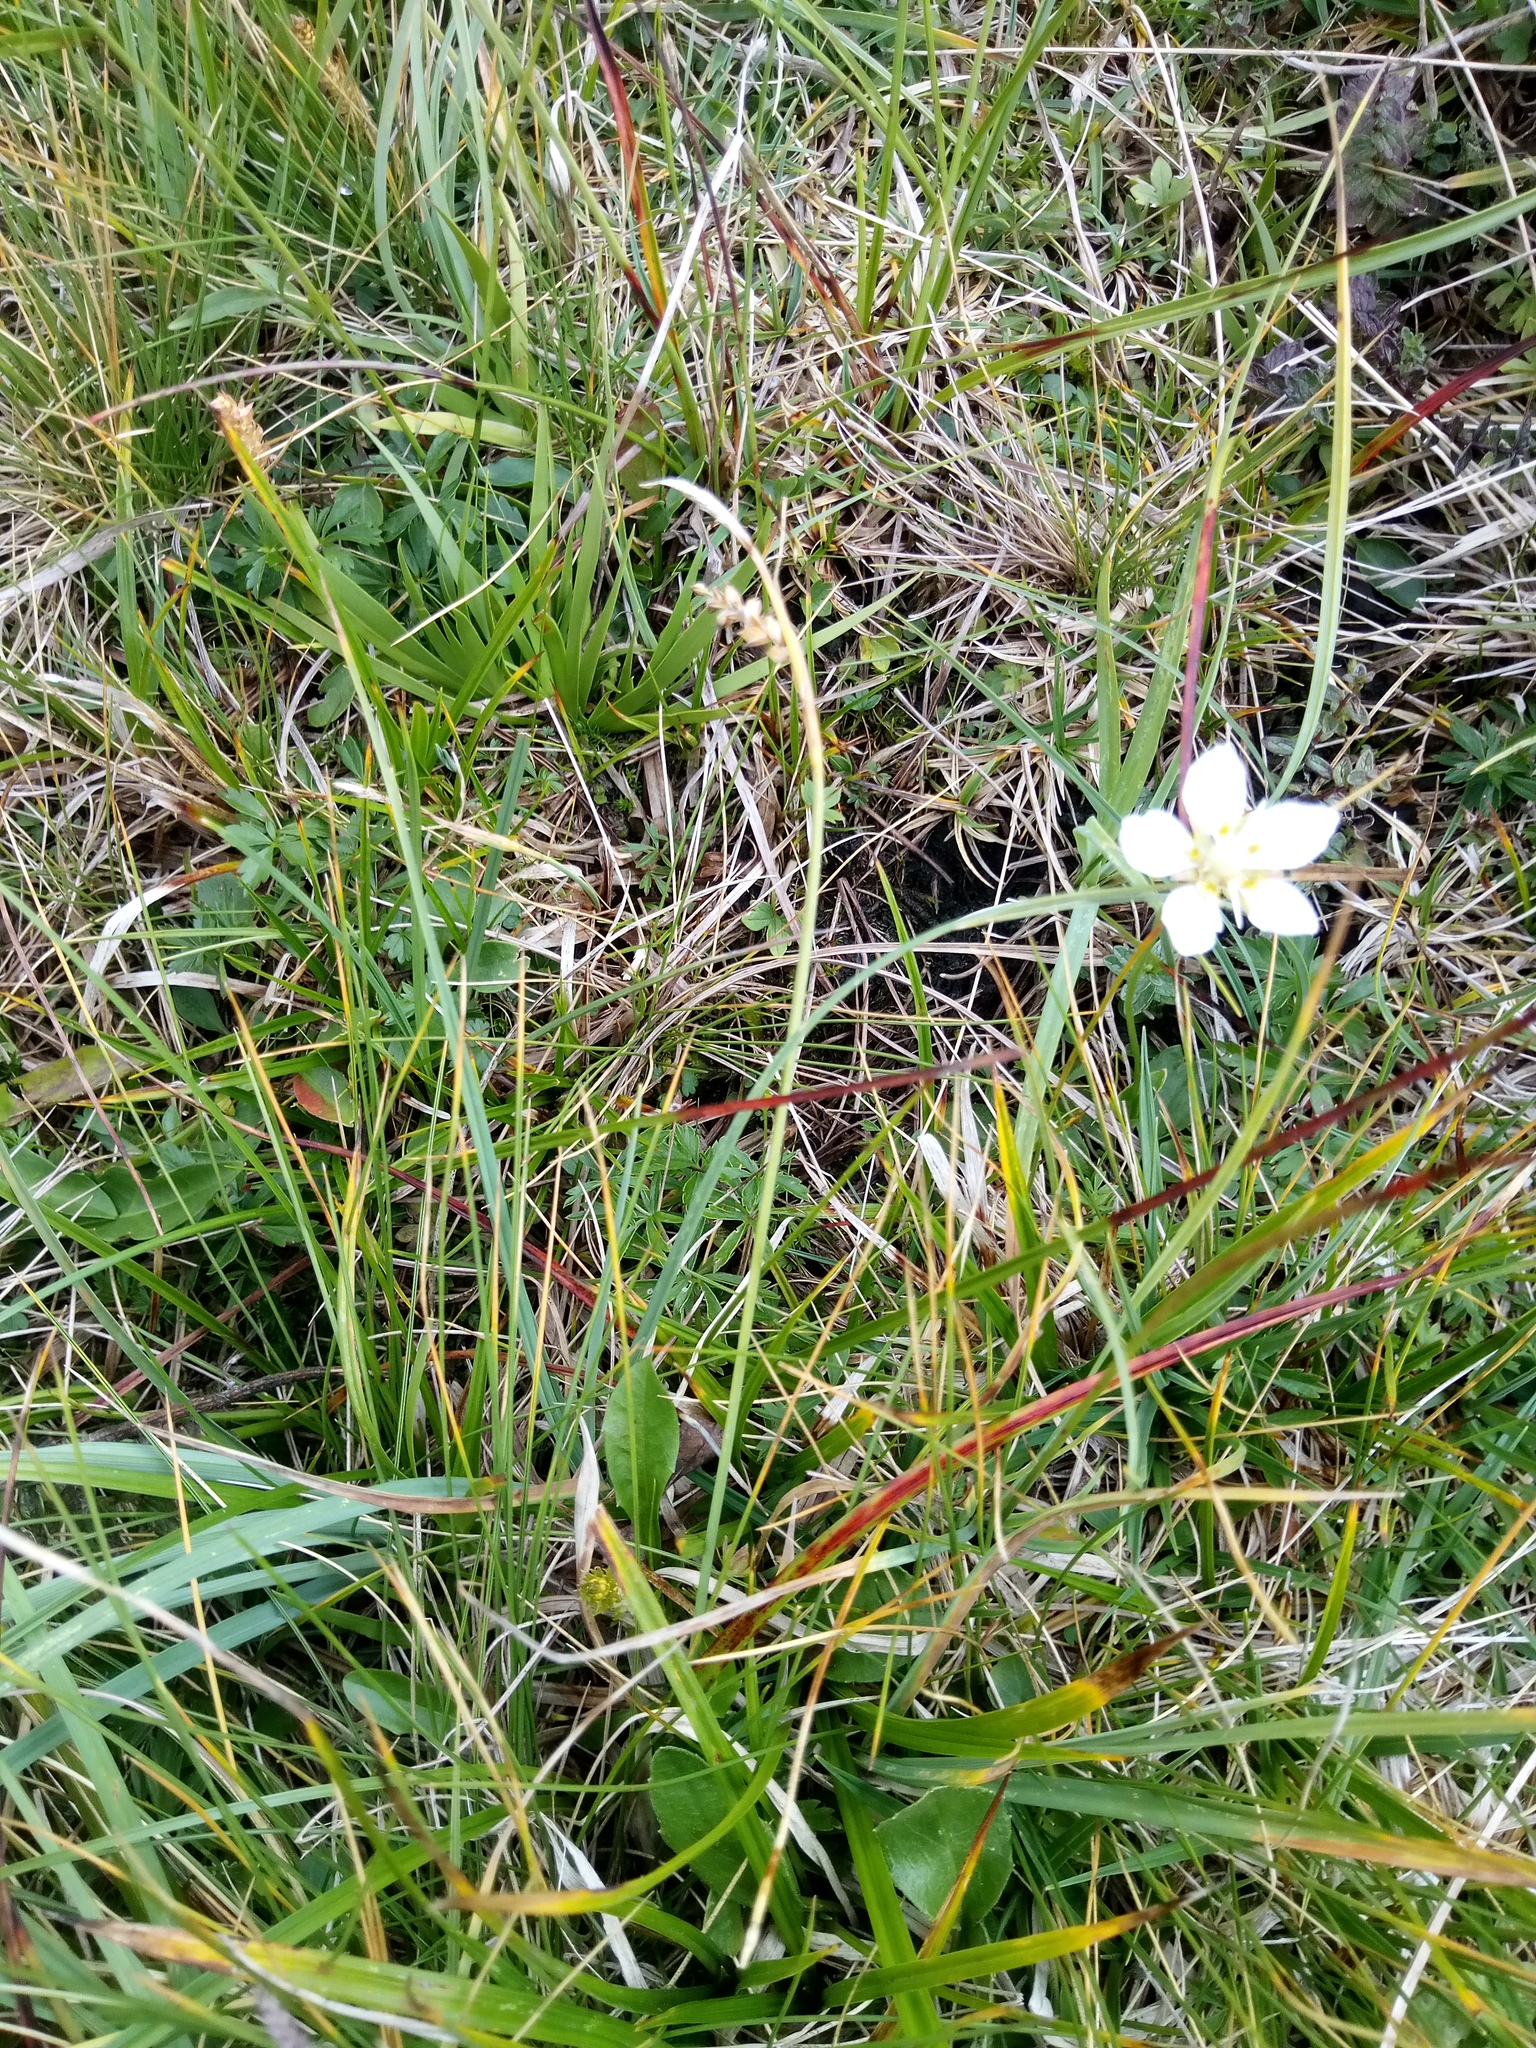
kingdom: Plantae
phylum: Tracheophyta
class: Magnoliopsida
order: Celastrales
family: Parnassiaceae
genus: Parnassia
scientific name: Parnassia palustris
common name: Grass-of-parnassus
